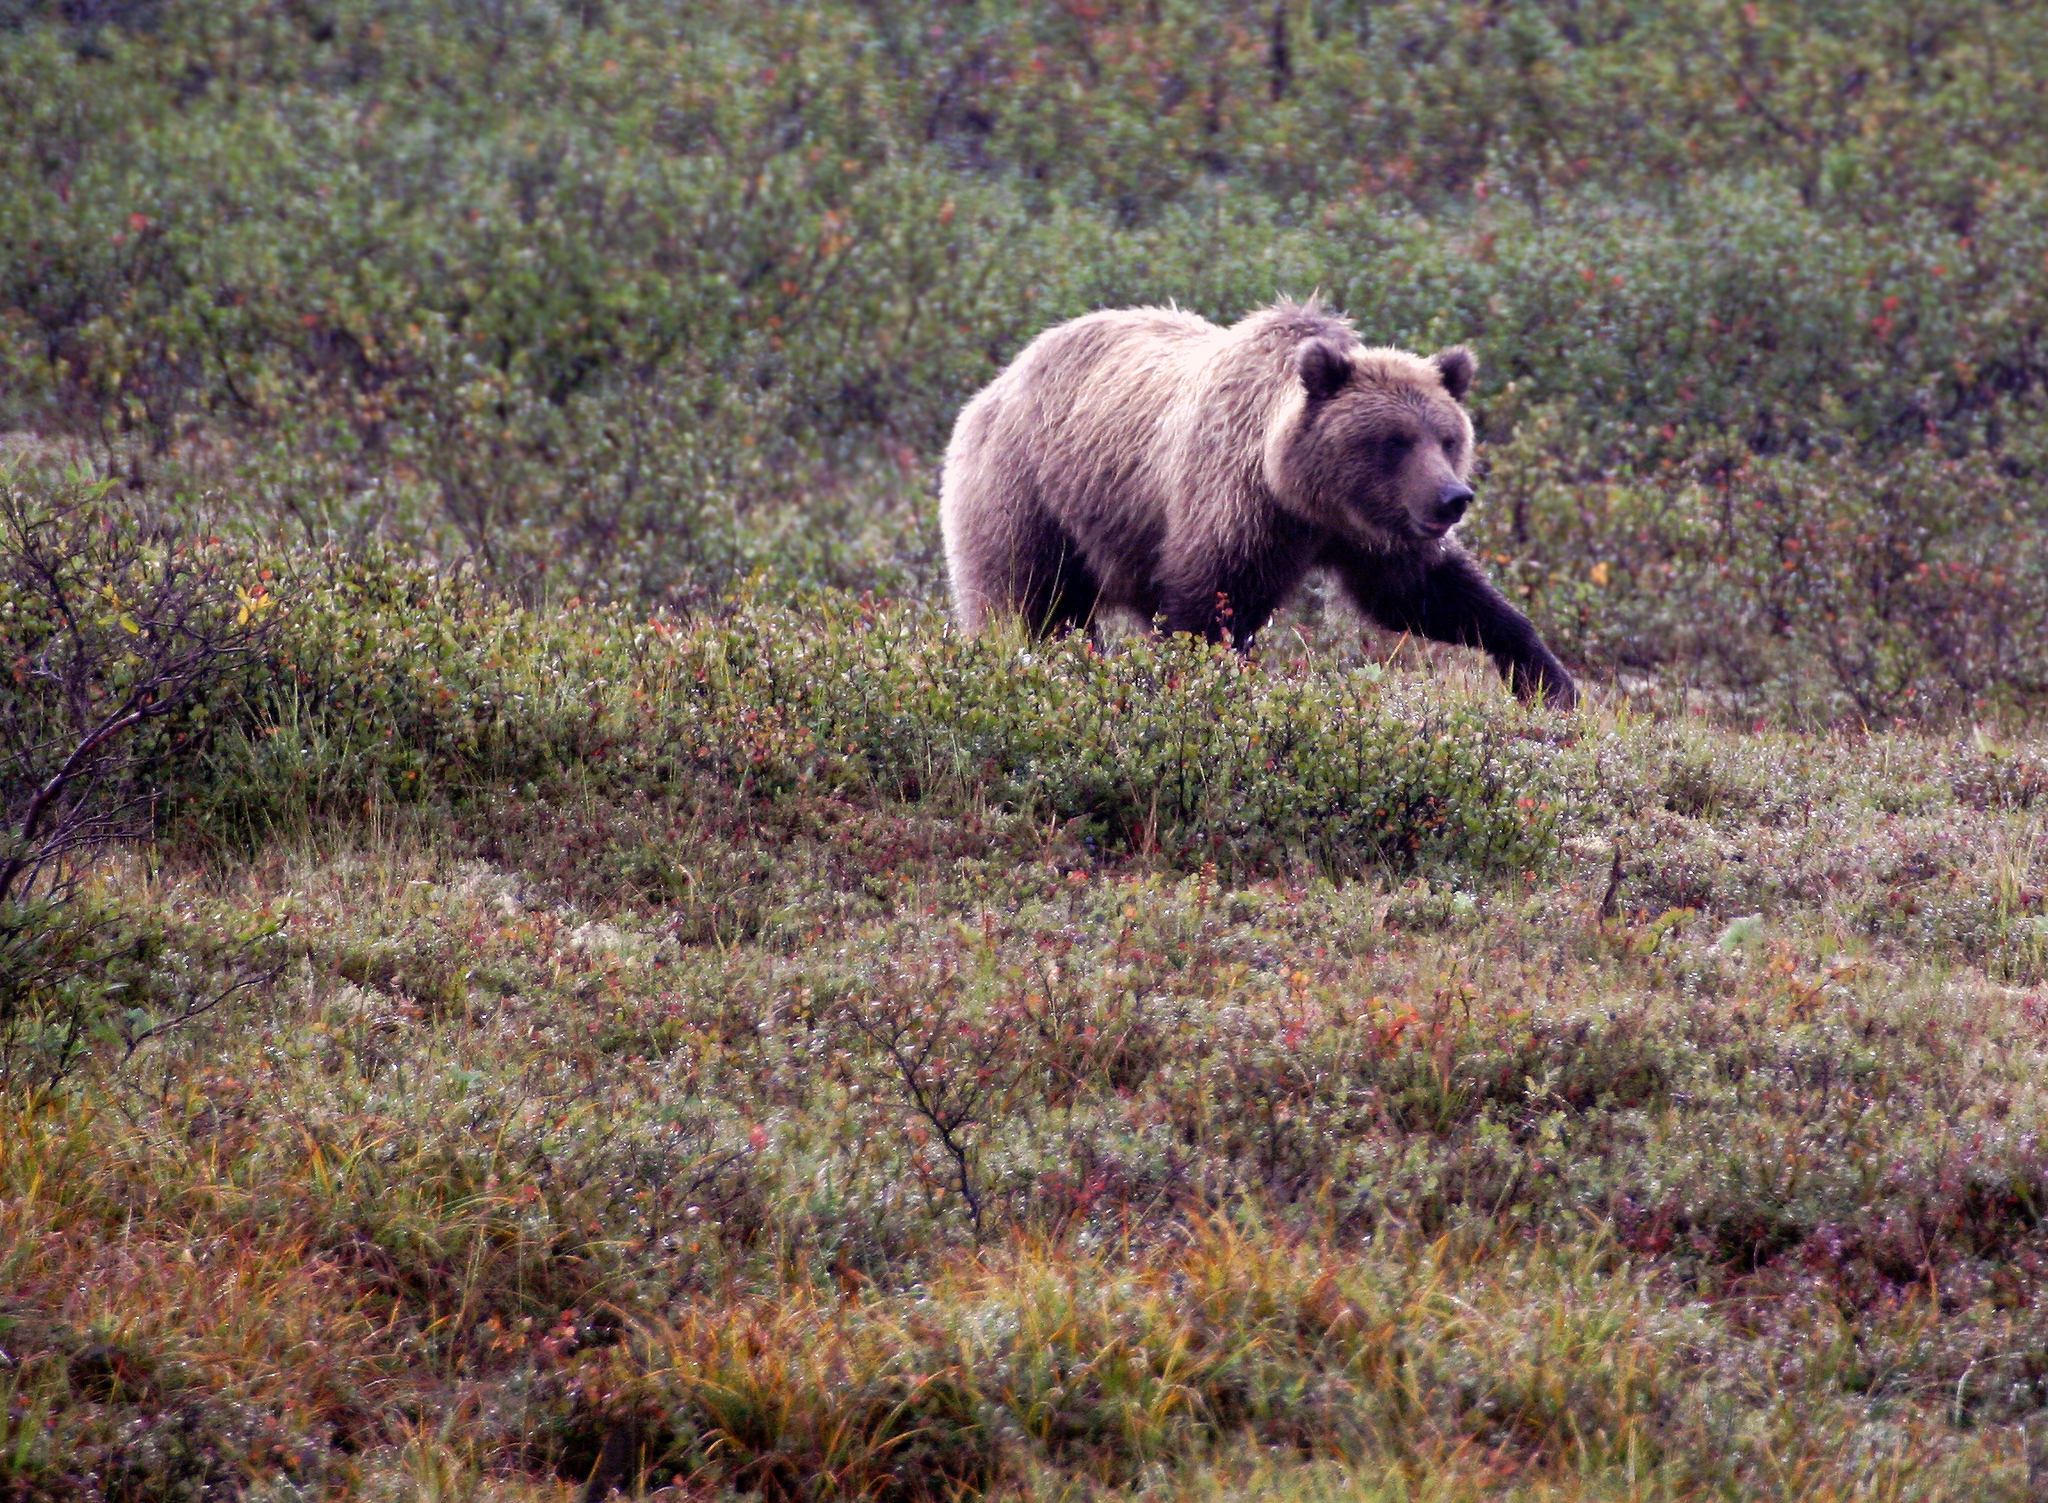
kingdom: Animalia
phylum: Chordata
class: Mammalia
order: Carnivora
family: Ursidae
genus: Ursus
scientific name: Ursus arctos
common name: Brown bear
